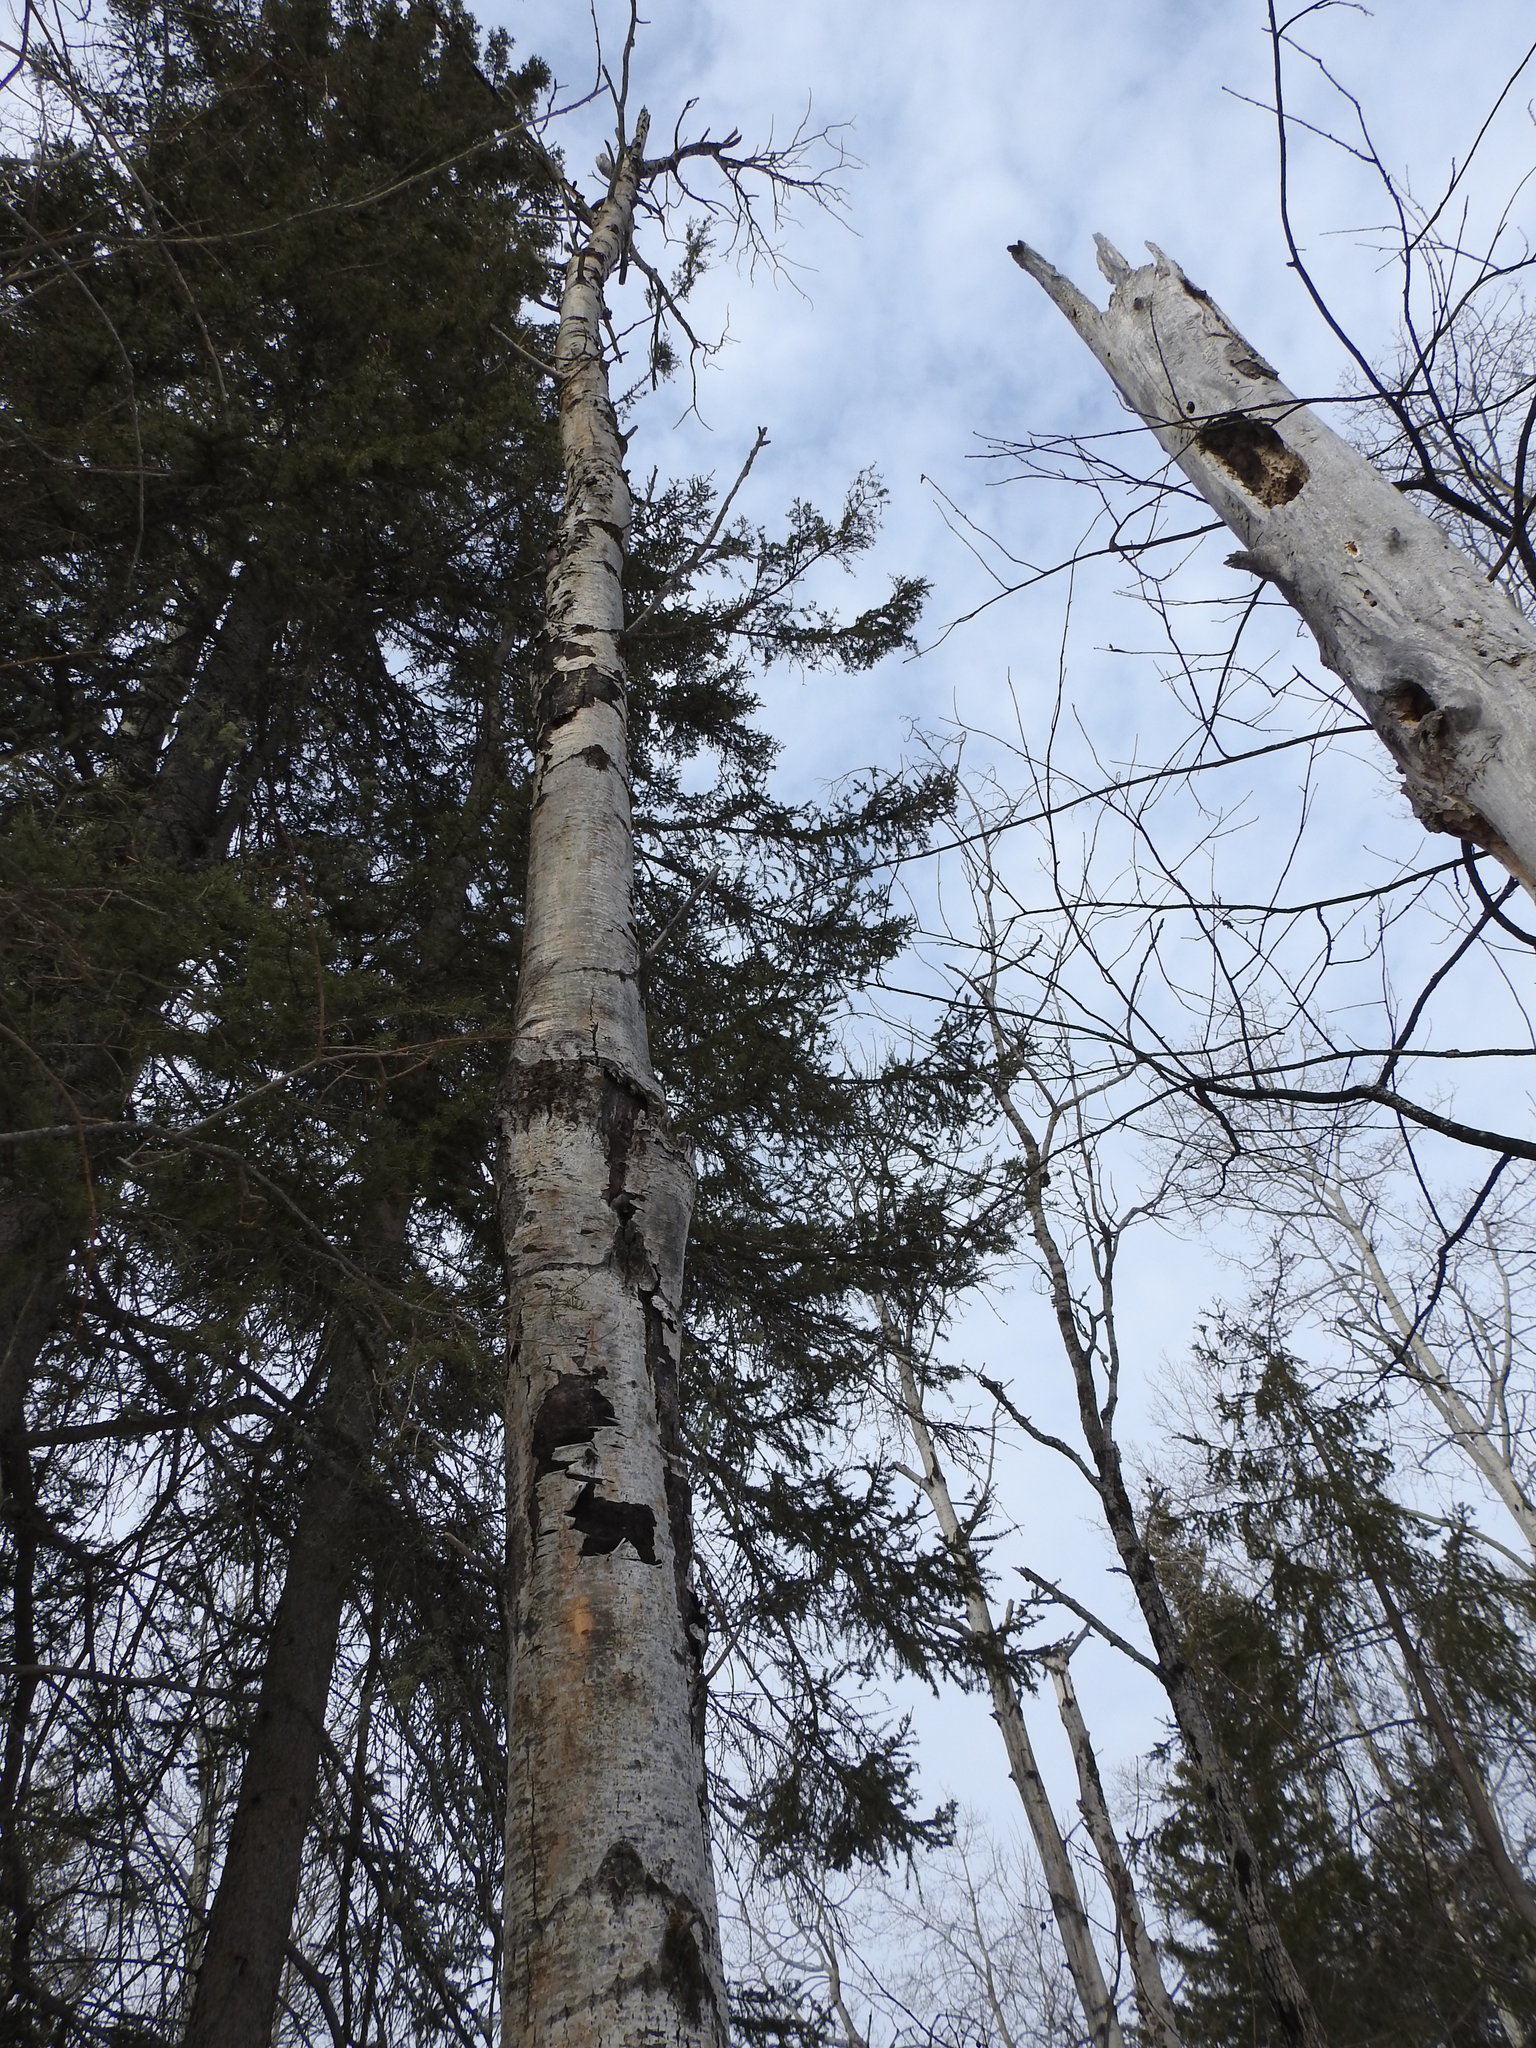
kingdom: Plantae
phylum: Tracheophyta
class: Magnoliopsida
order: Malpighiales
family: Salicaceae
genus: Populus
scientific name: Populus tremuloides
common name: Quaking aspen
